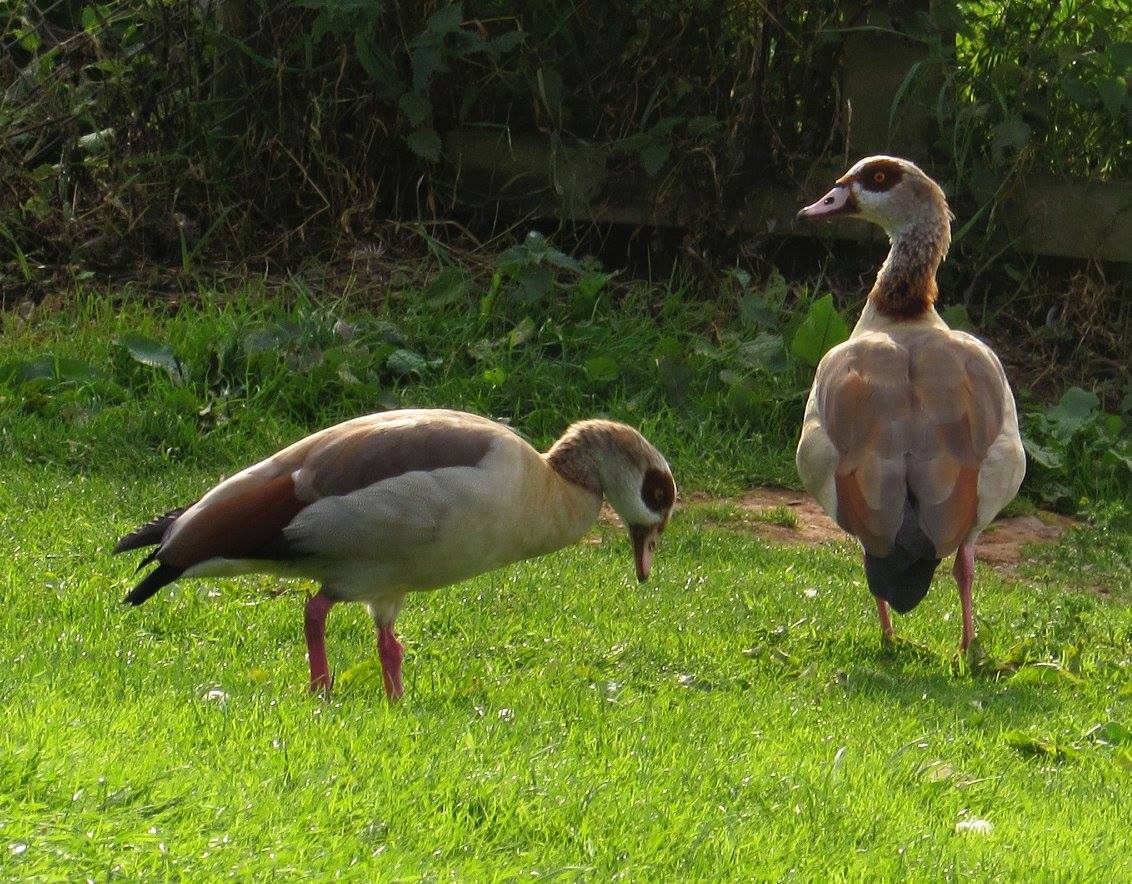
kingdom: Animalia
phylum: Chordata
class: Aves
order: Anseriformes
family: Anatidae
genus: Alopochen
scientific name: Alopochen aegyptiaca
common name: Egyptian goose
